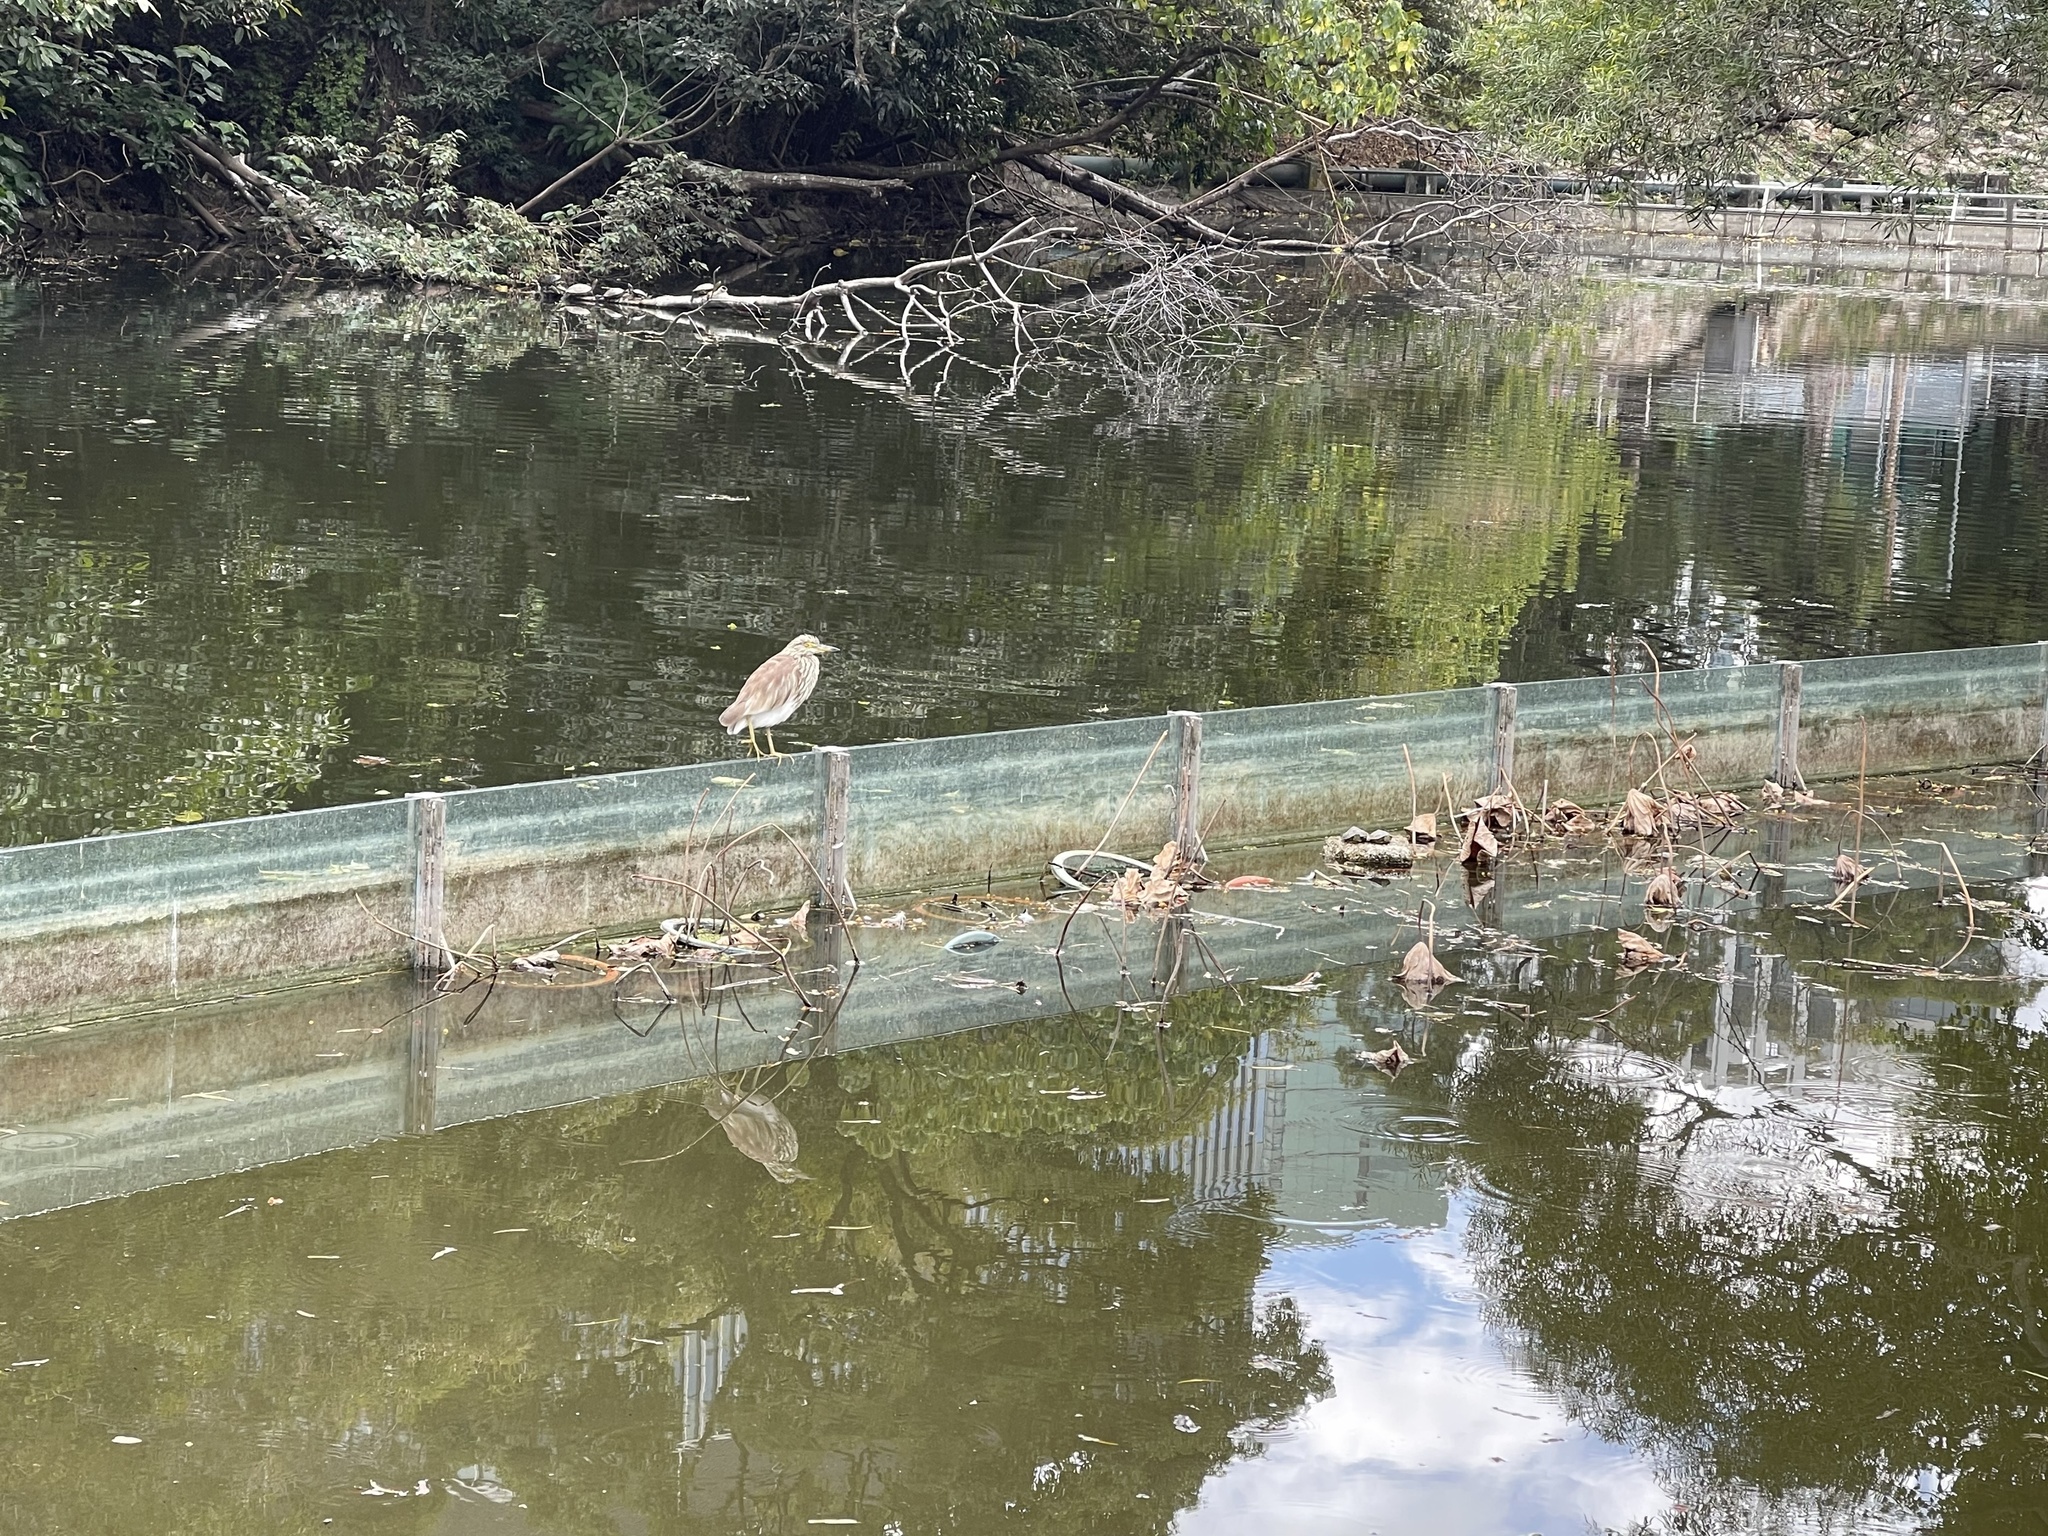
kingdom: Animalia
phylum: Chordata
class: Aves
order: Pelecaniformes
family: Ardeidae
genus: Ardeola
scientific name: Ardeola bacchus
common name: Chinese pond heron
